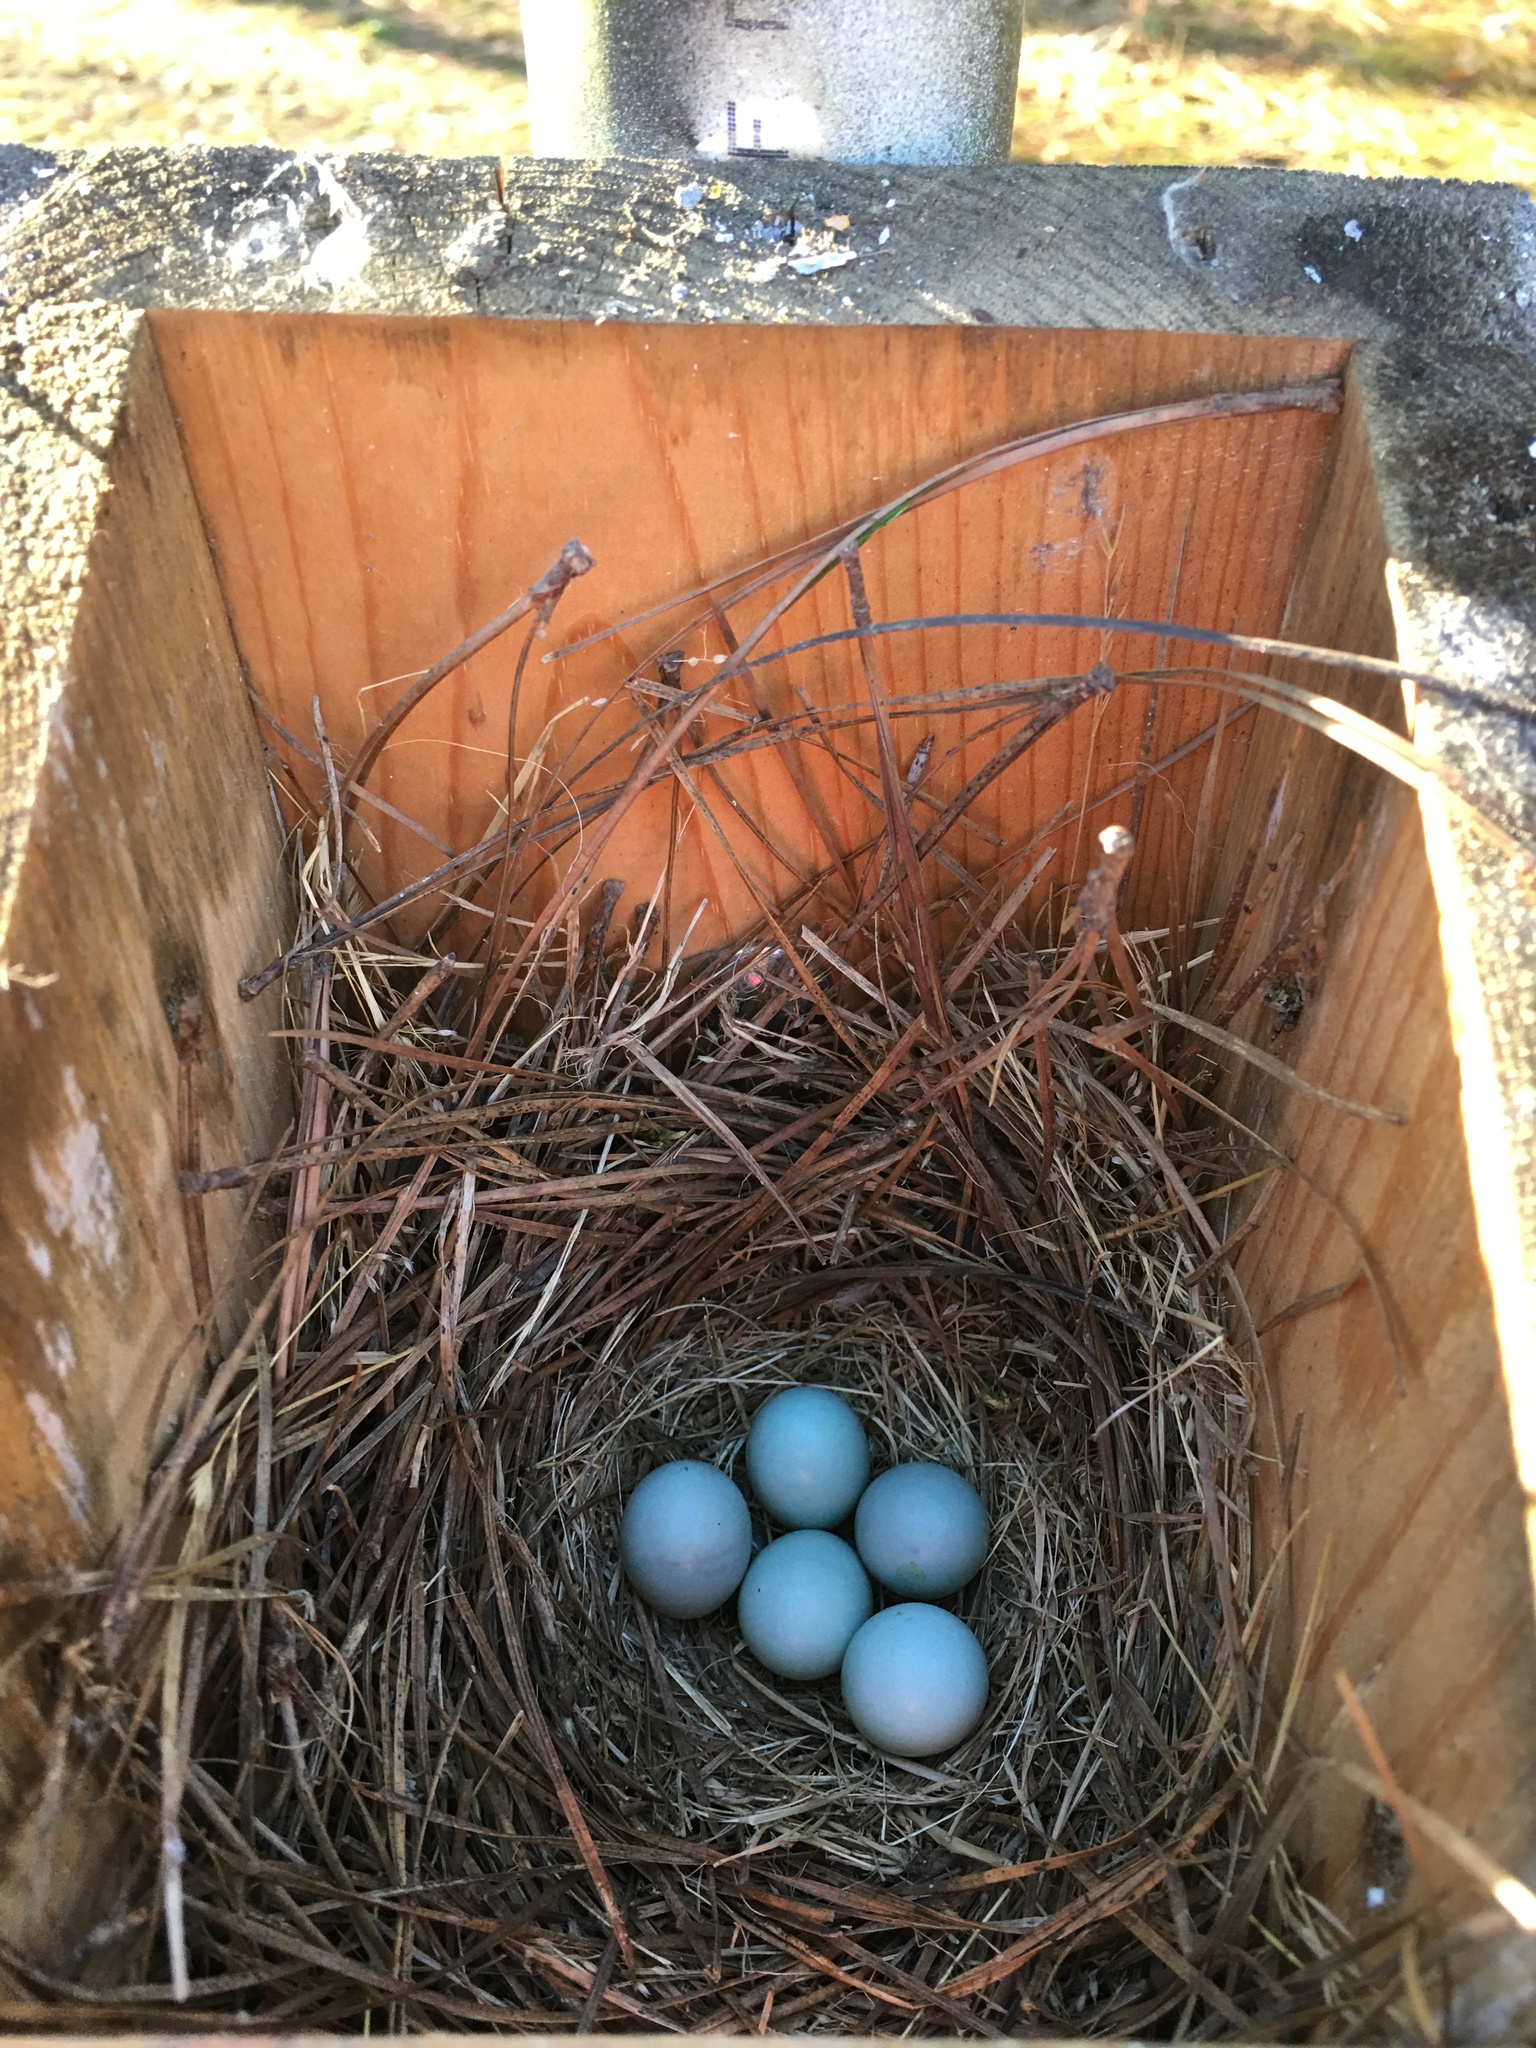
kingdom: Animalia
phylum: Chordata
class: Aves
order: Passeriformes
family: Turdidae
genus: Sialia
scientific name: Sialia sialis
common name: Eastern bluebird
